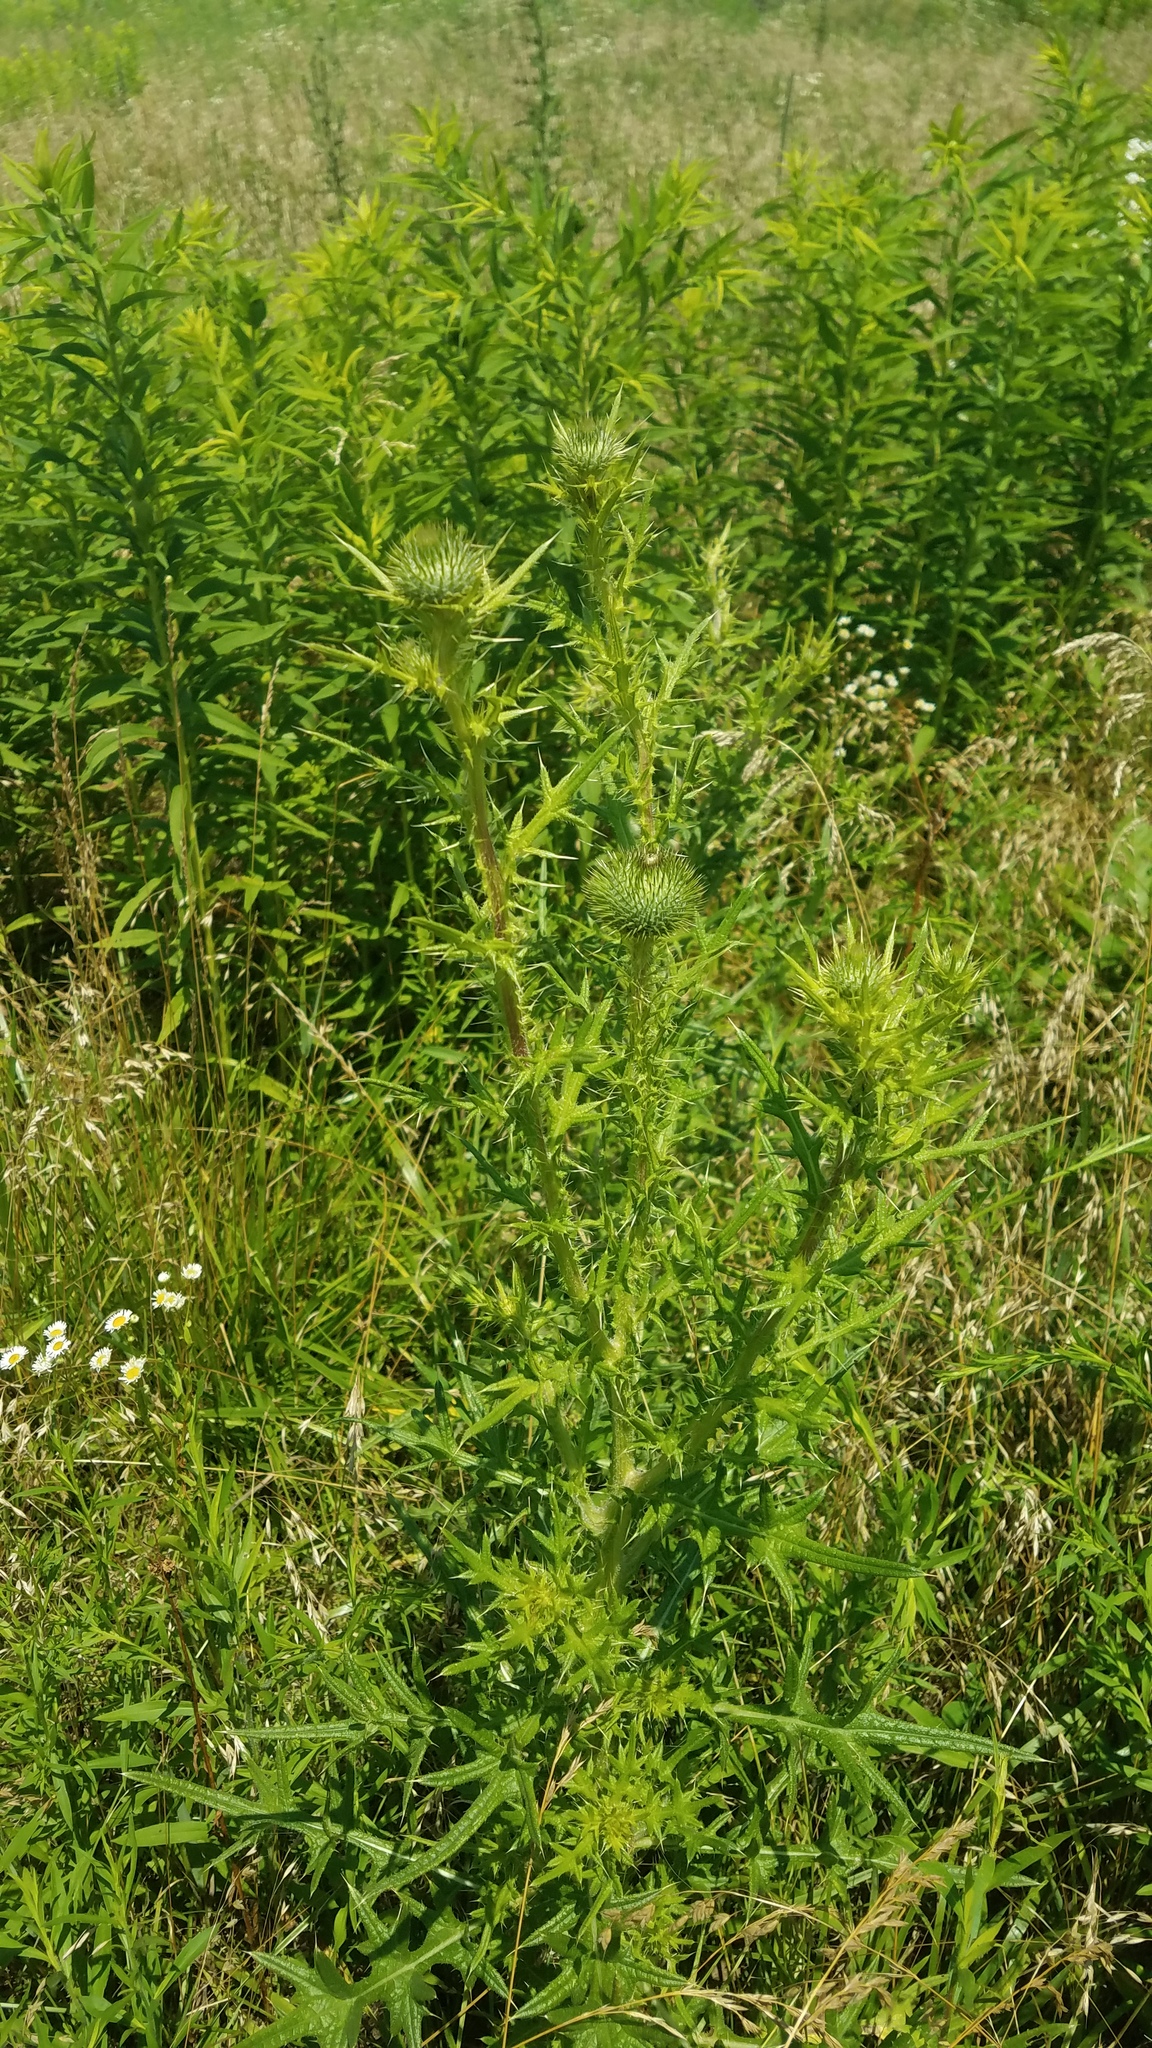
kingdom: Plantae
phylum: Tracheophyta
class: Magnoliopsida
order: Asterales
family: Asteraceae
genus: Cirsium
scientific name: Cirsium vulgare
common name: Bull thistle
